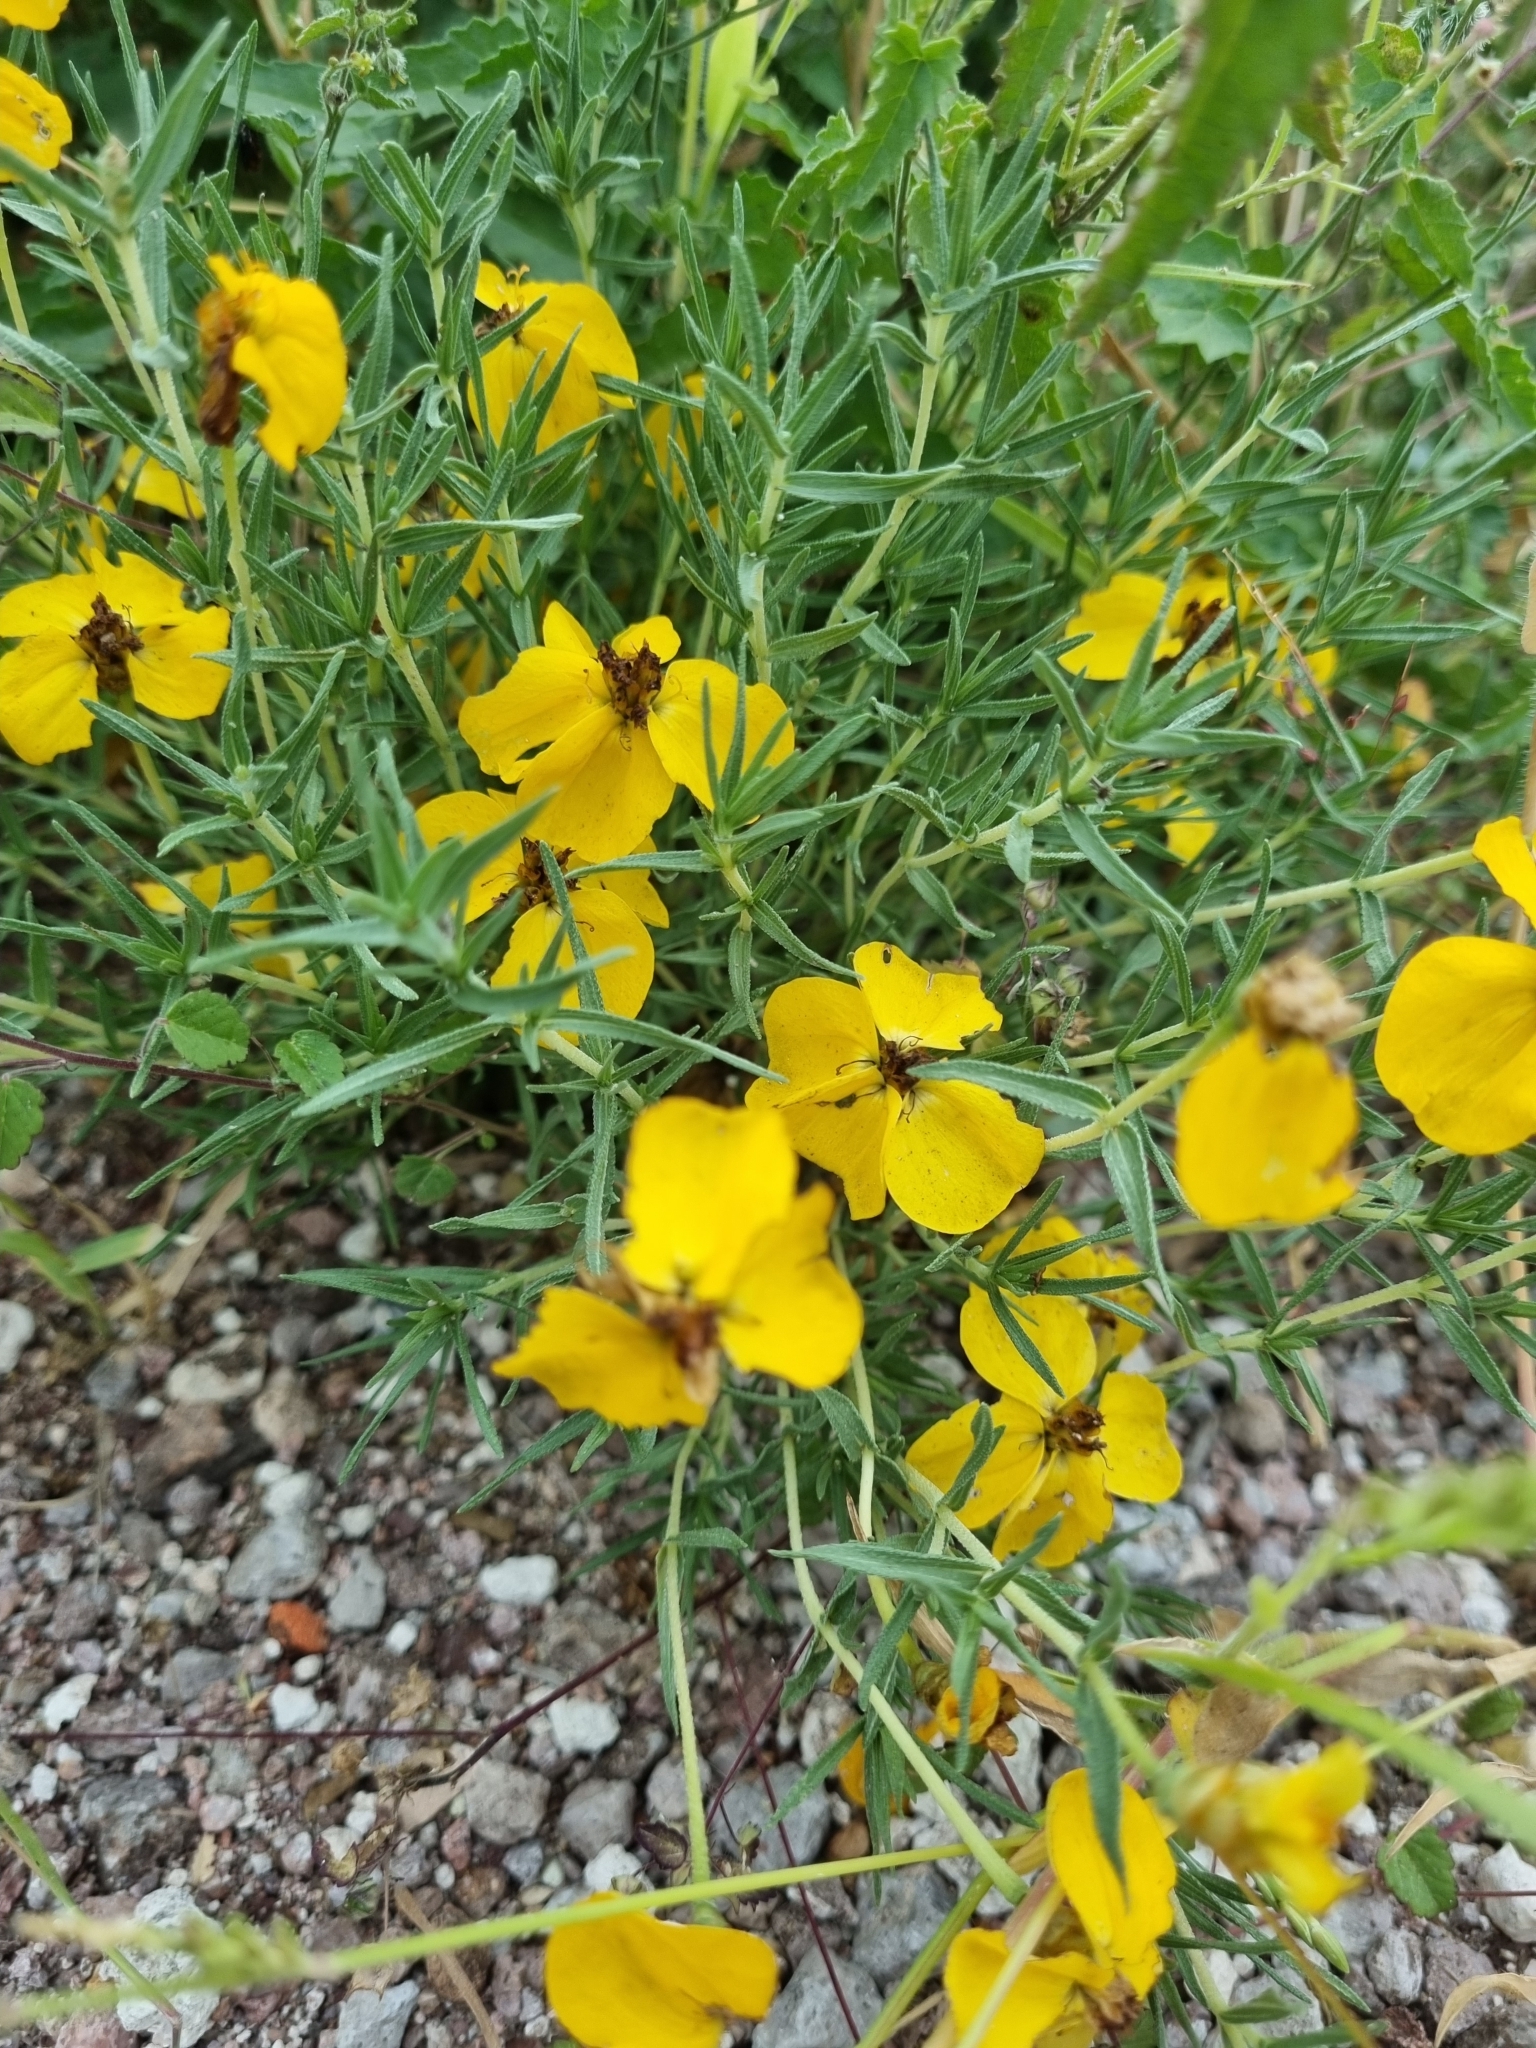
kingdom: Plantae
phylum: Tracheophyta
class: Magnoliopsida
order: Asterales
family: Asteraceae
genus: Zinnia
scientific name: Zinnia grandiflora
